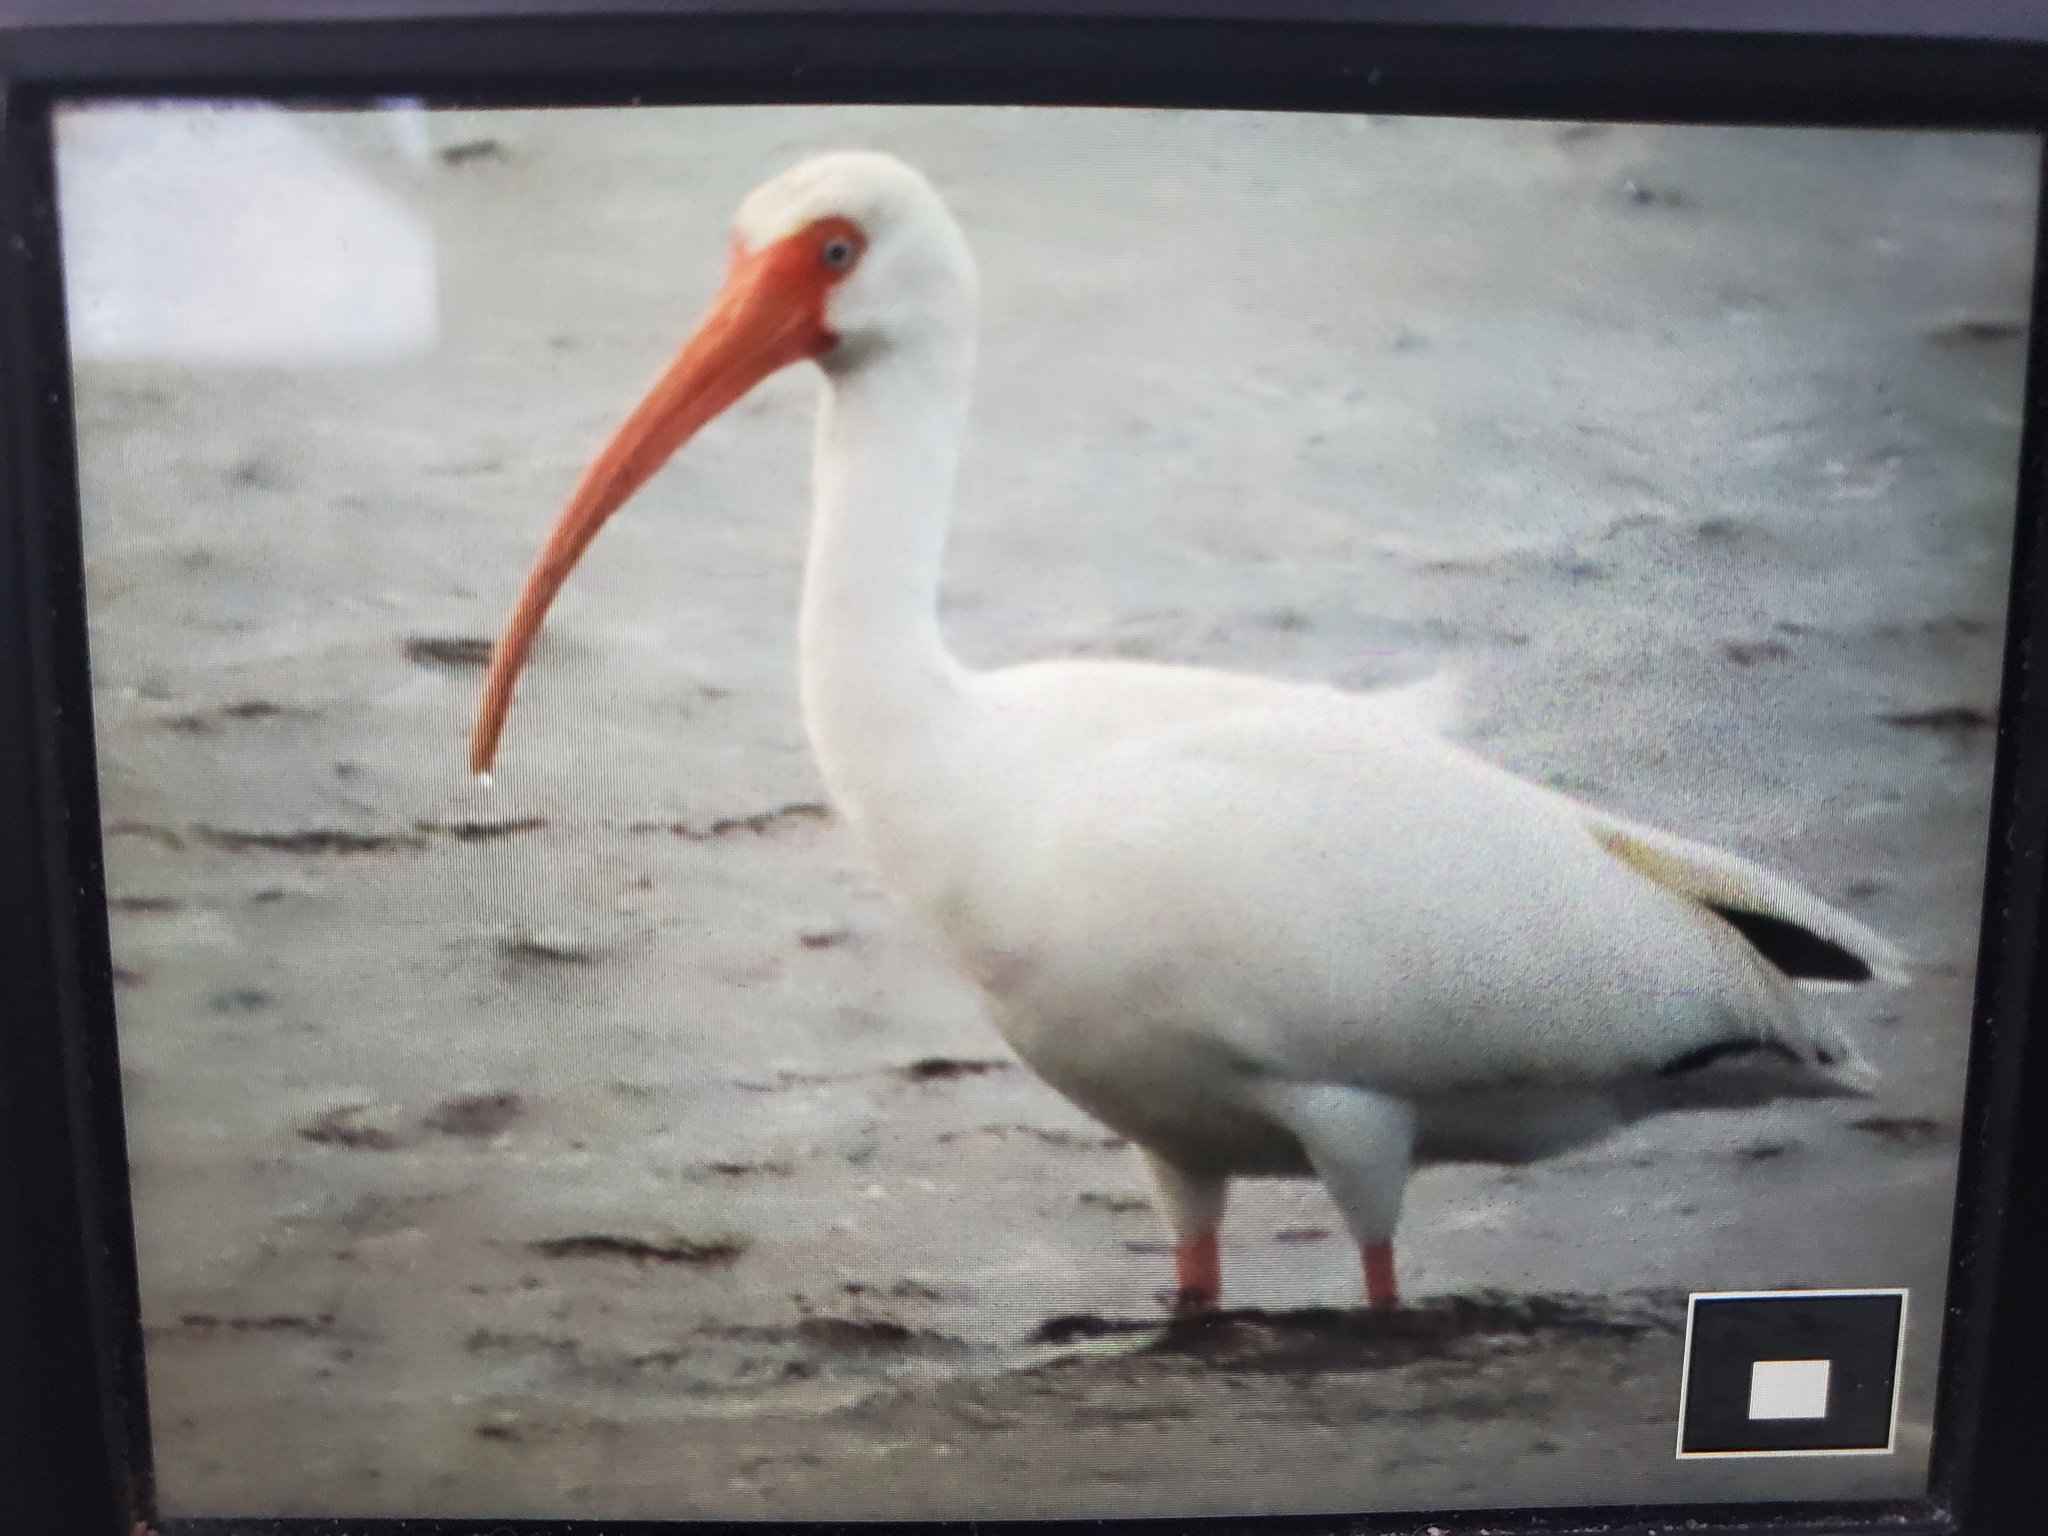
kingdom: Animalia
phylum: Chordata
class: Aves
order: Pelecaniformes
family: Threskiornithidae
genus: Eudocimus
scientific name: Eudocimus albus
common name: White ibis
